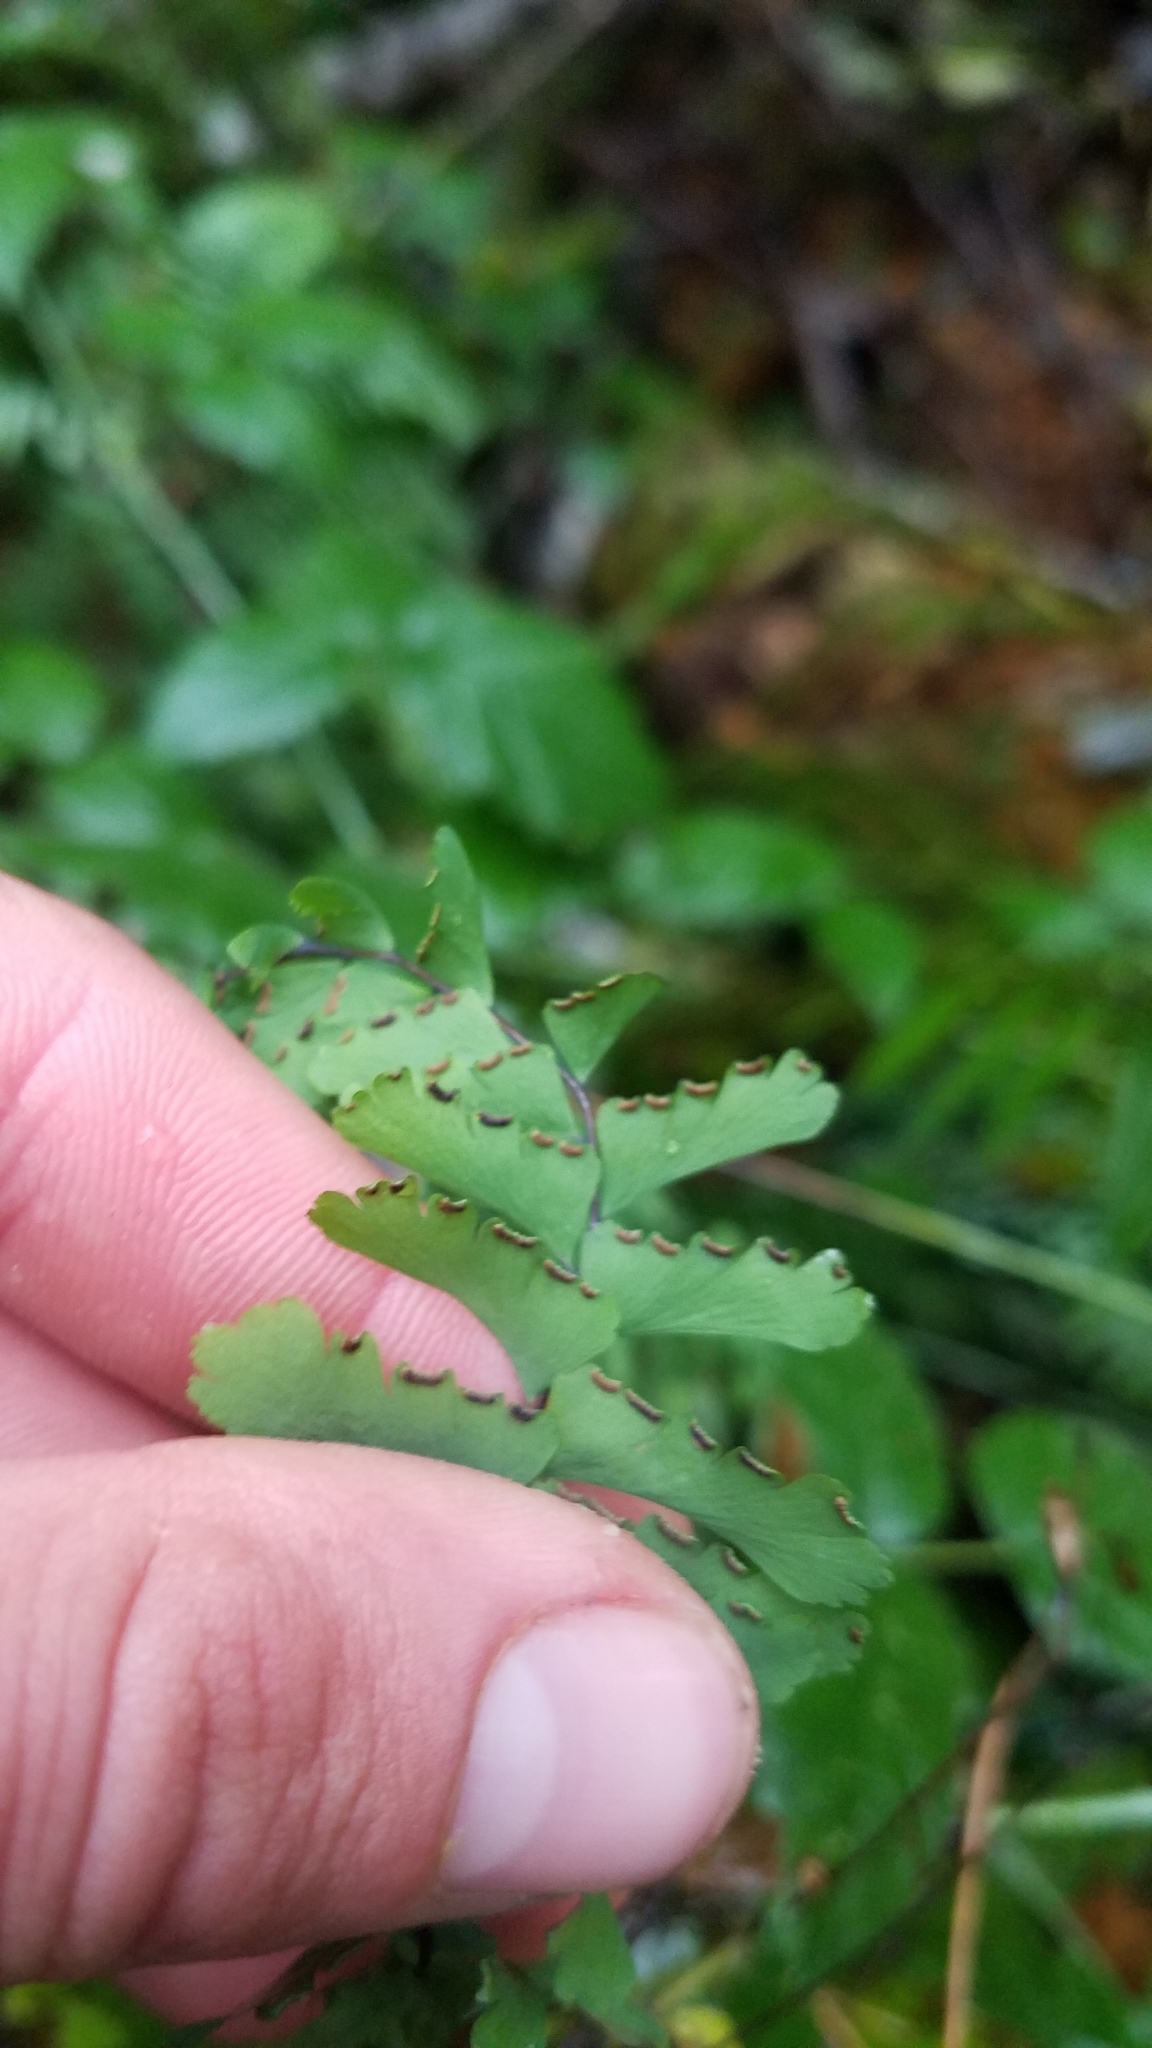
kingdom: Plantae
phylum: Tracheophyta
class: Polypodiopsida
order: Polypodiales
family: Pteridaceae
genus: Adiantum
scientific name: Adiantum aleuticum
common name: Aleutian maidenhair fern
